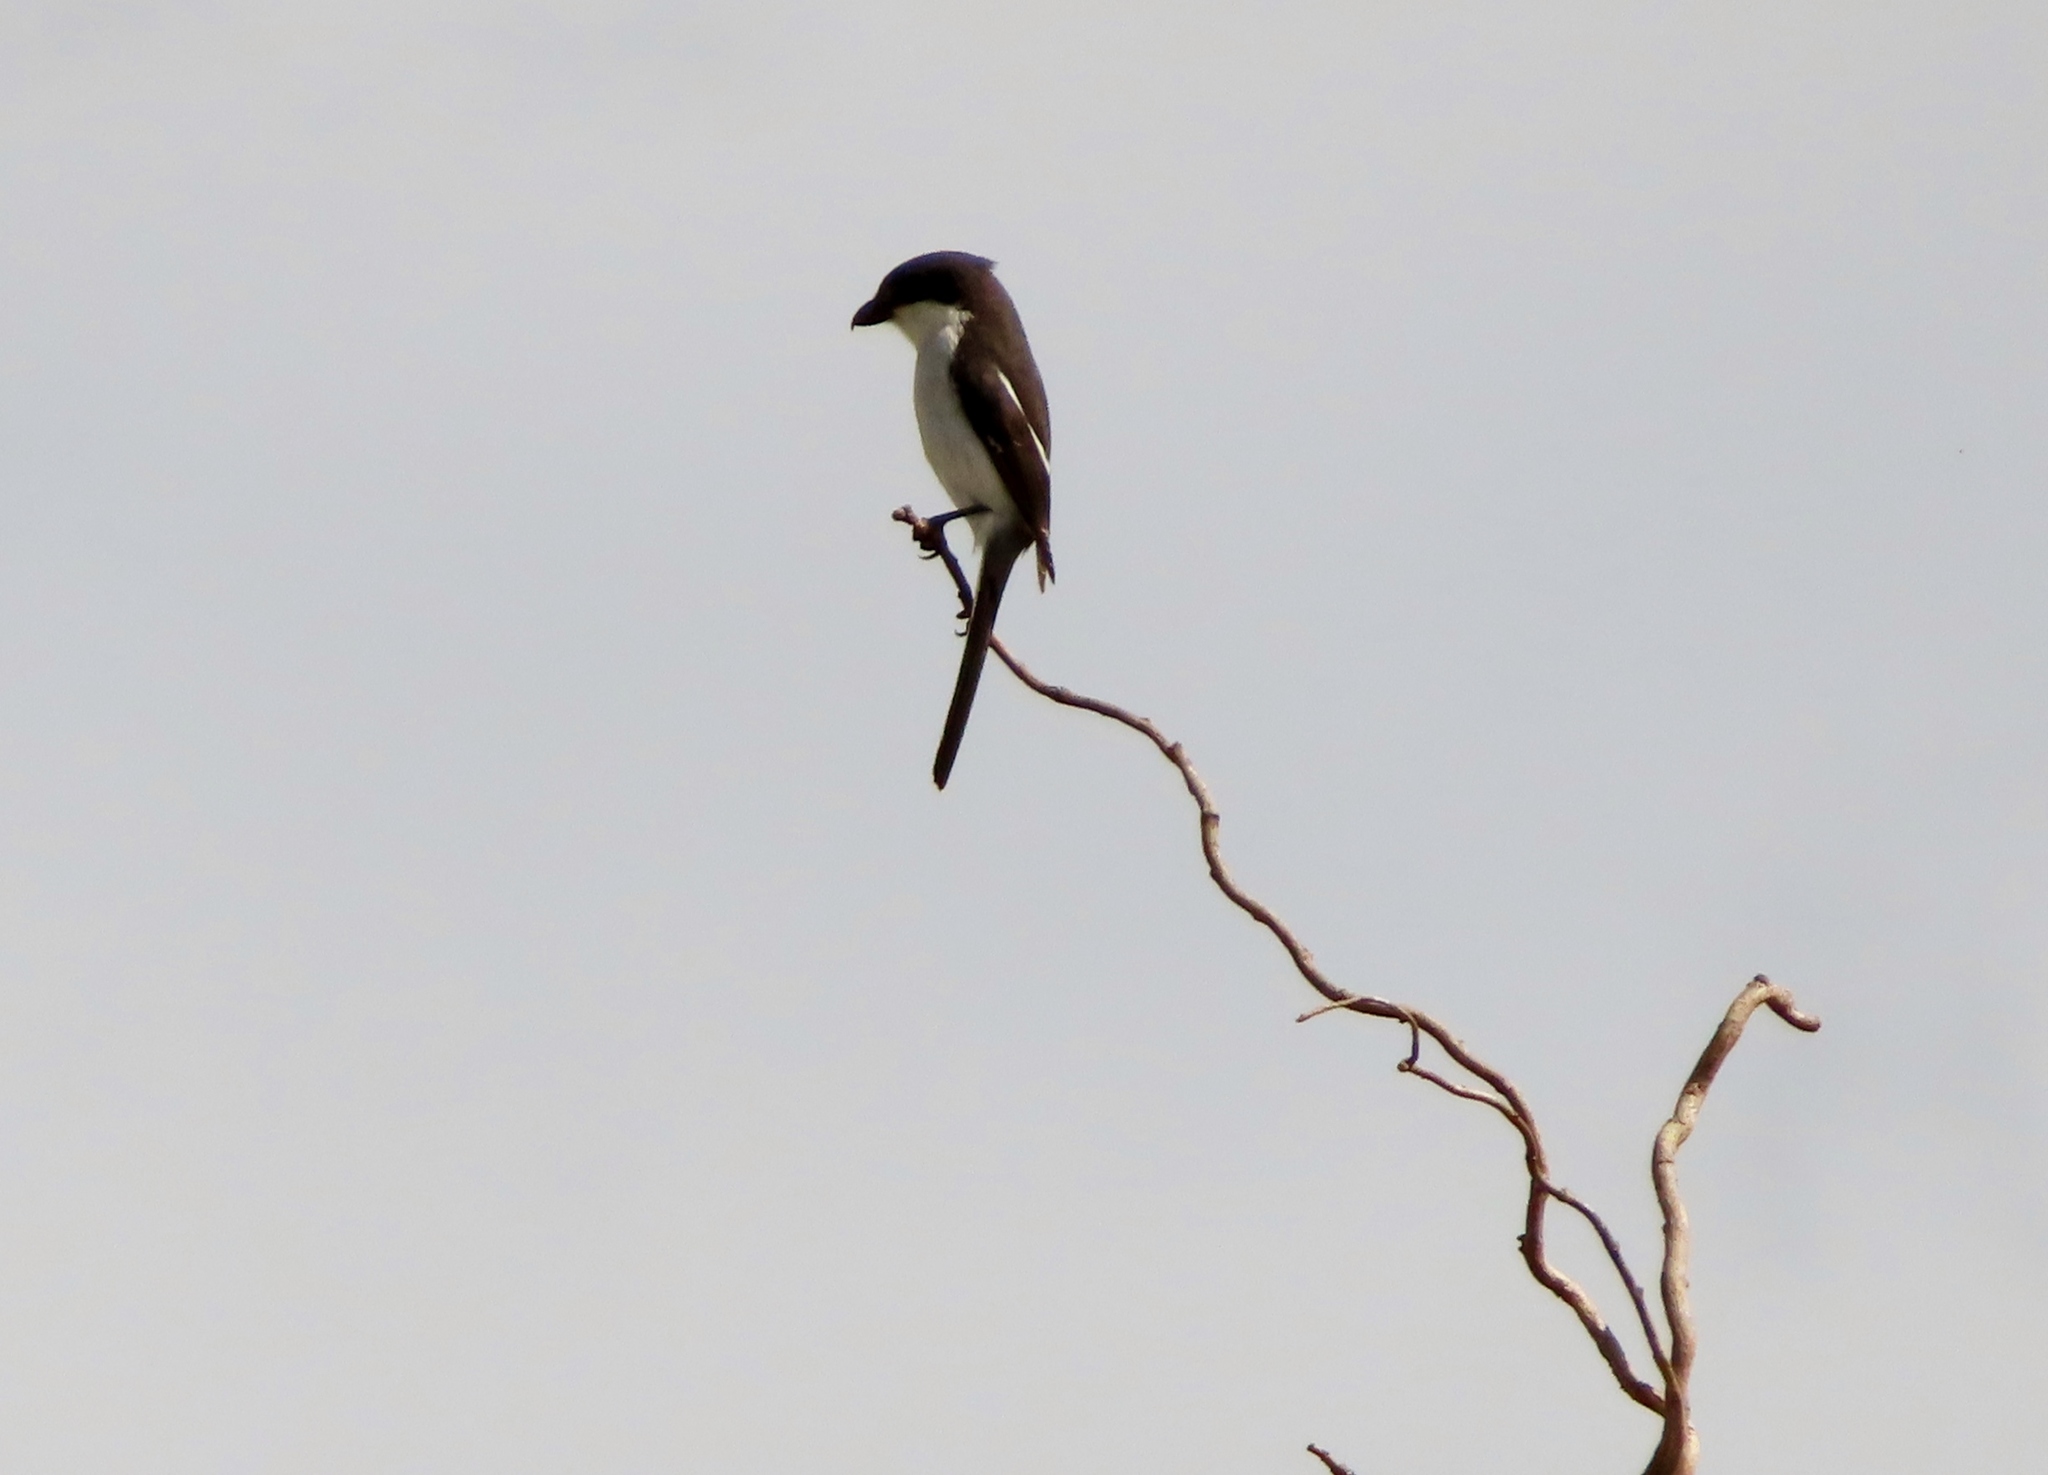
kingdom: Animalia
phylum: Chordata
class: Aves
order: Passeriformes
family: Laniidae
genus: Lanius
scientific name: Lanius collaris
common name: Southern fiscal
